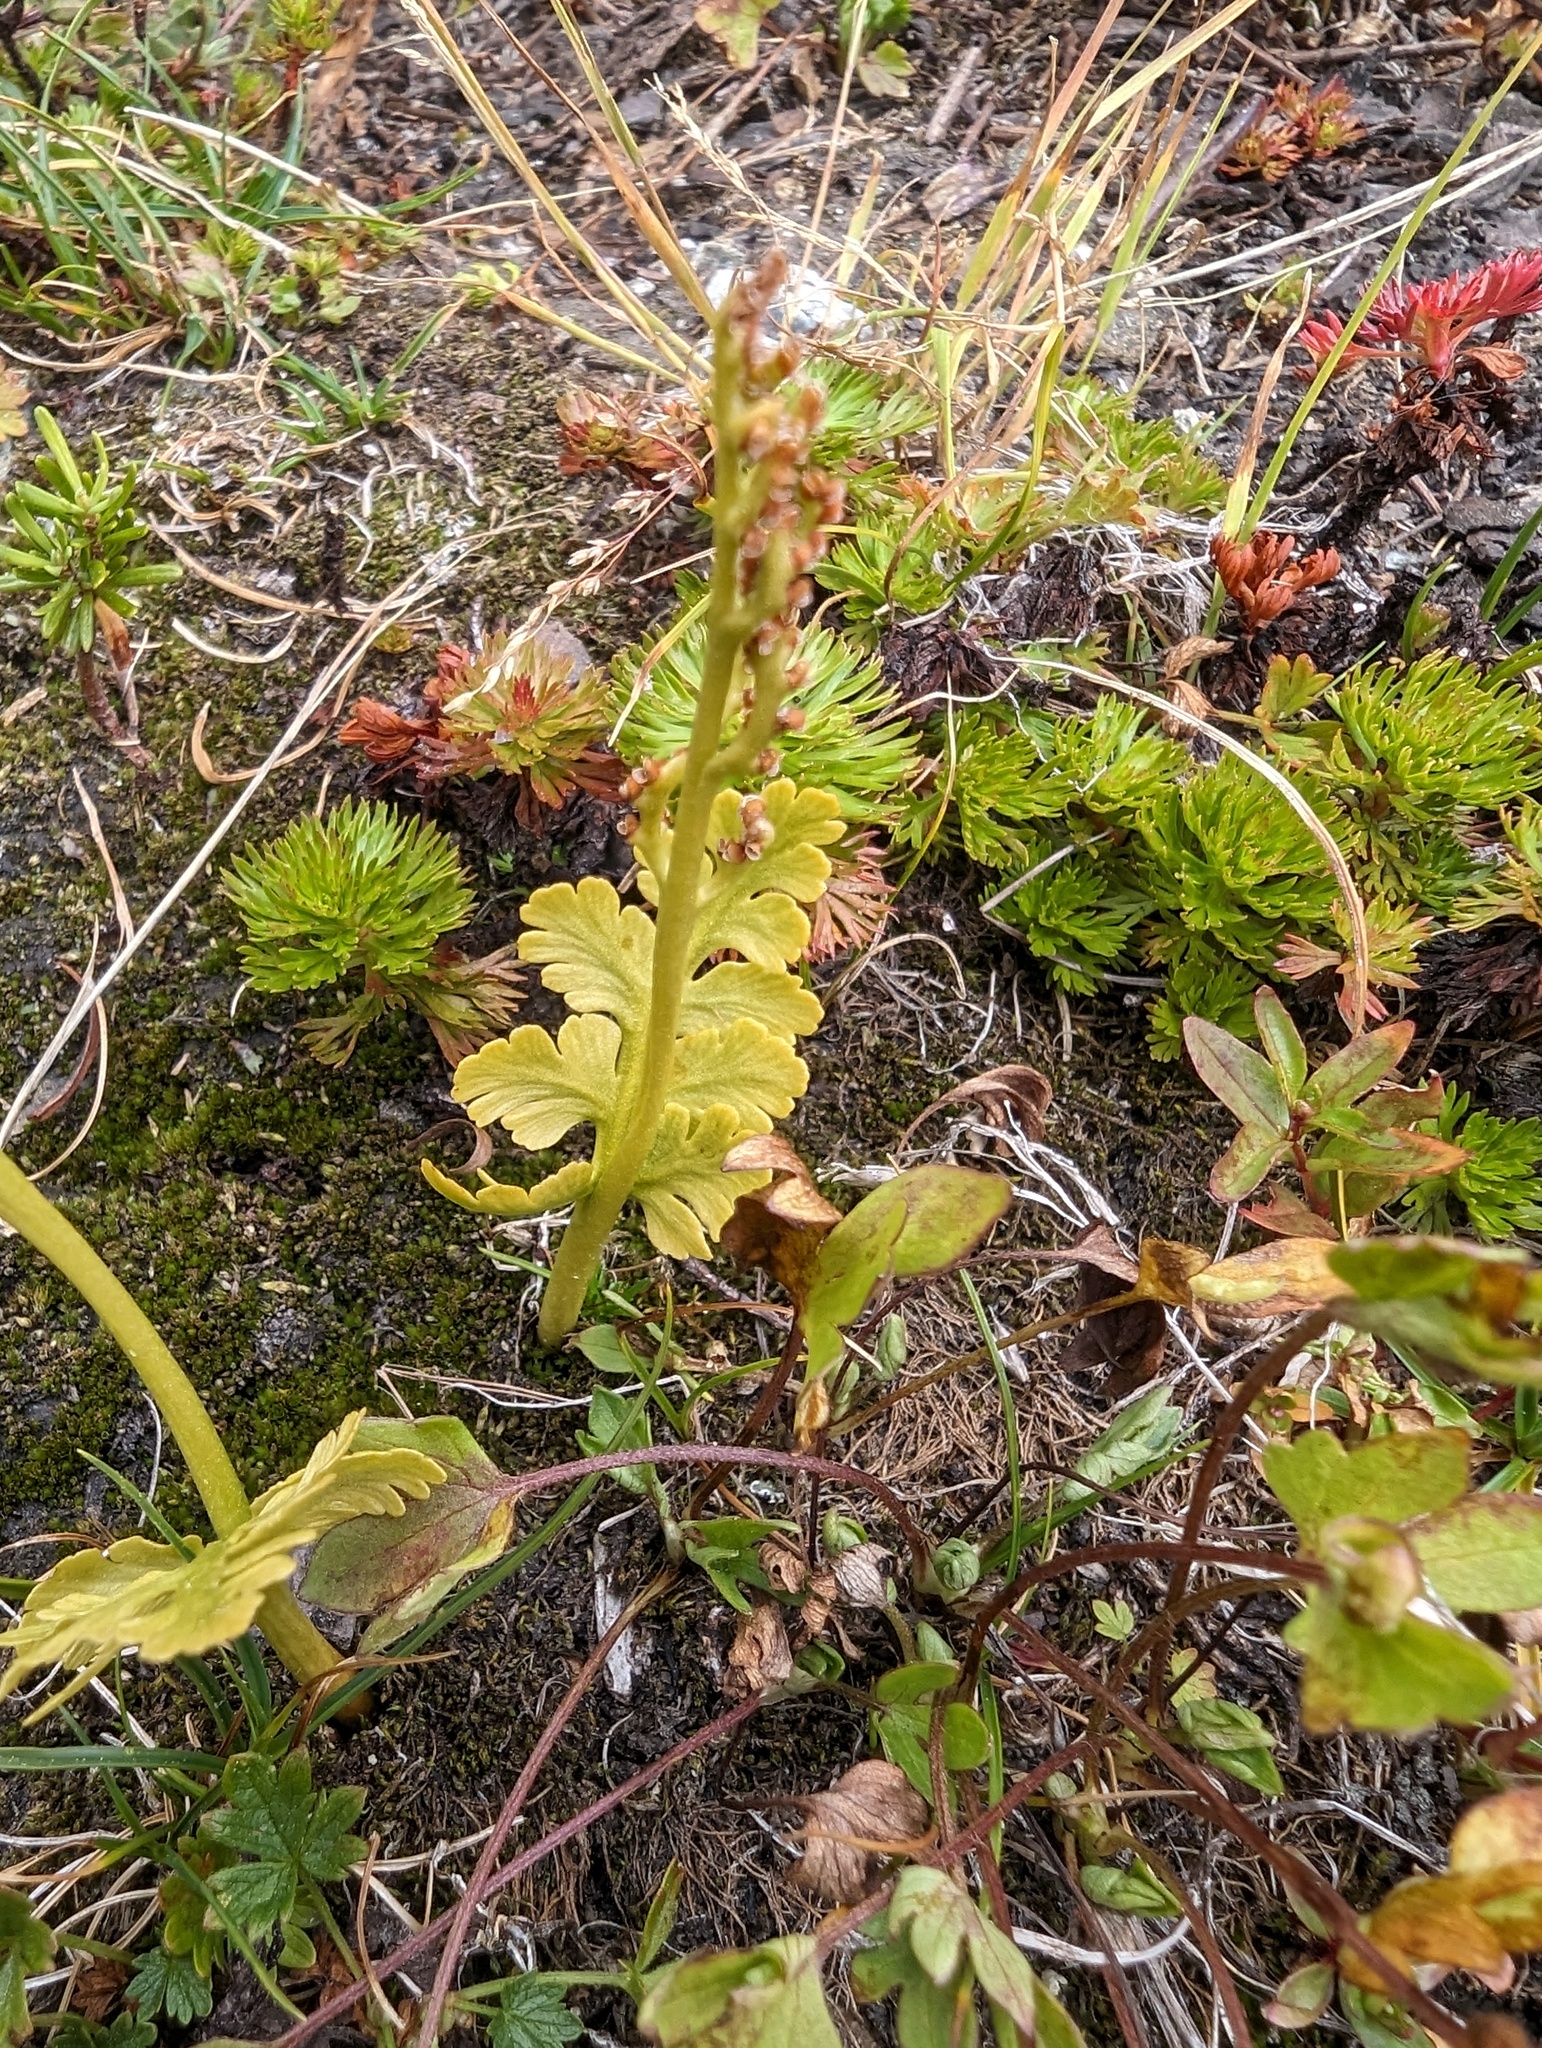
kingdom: Plantae
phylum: Tracheophyta
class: Polypodiopsida
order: Ophioglossales
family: Ophioglossaceae
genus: Botrychium
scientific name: Botrychium pinnatum
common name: Northwestern moonwort
